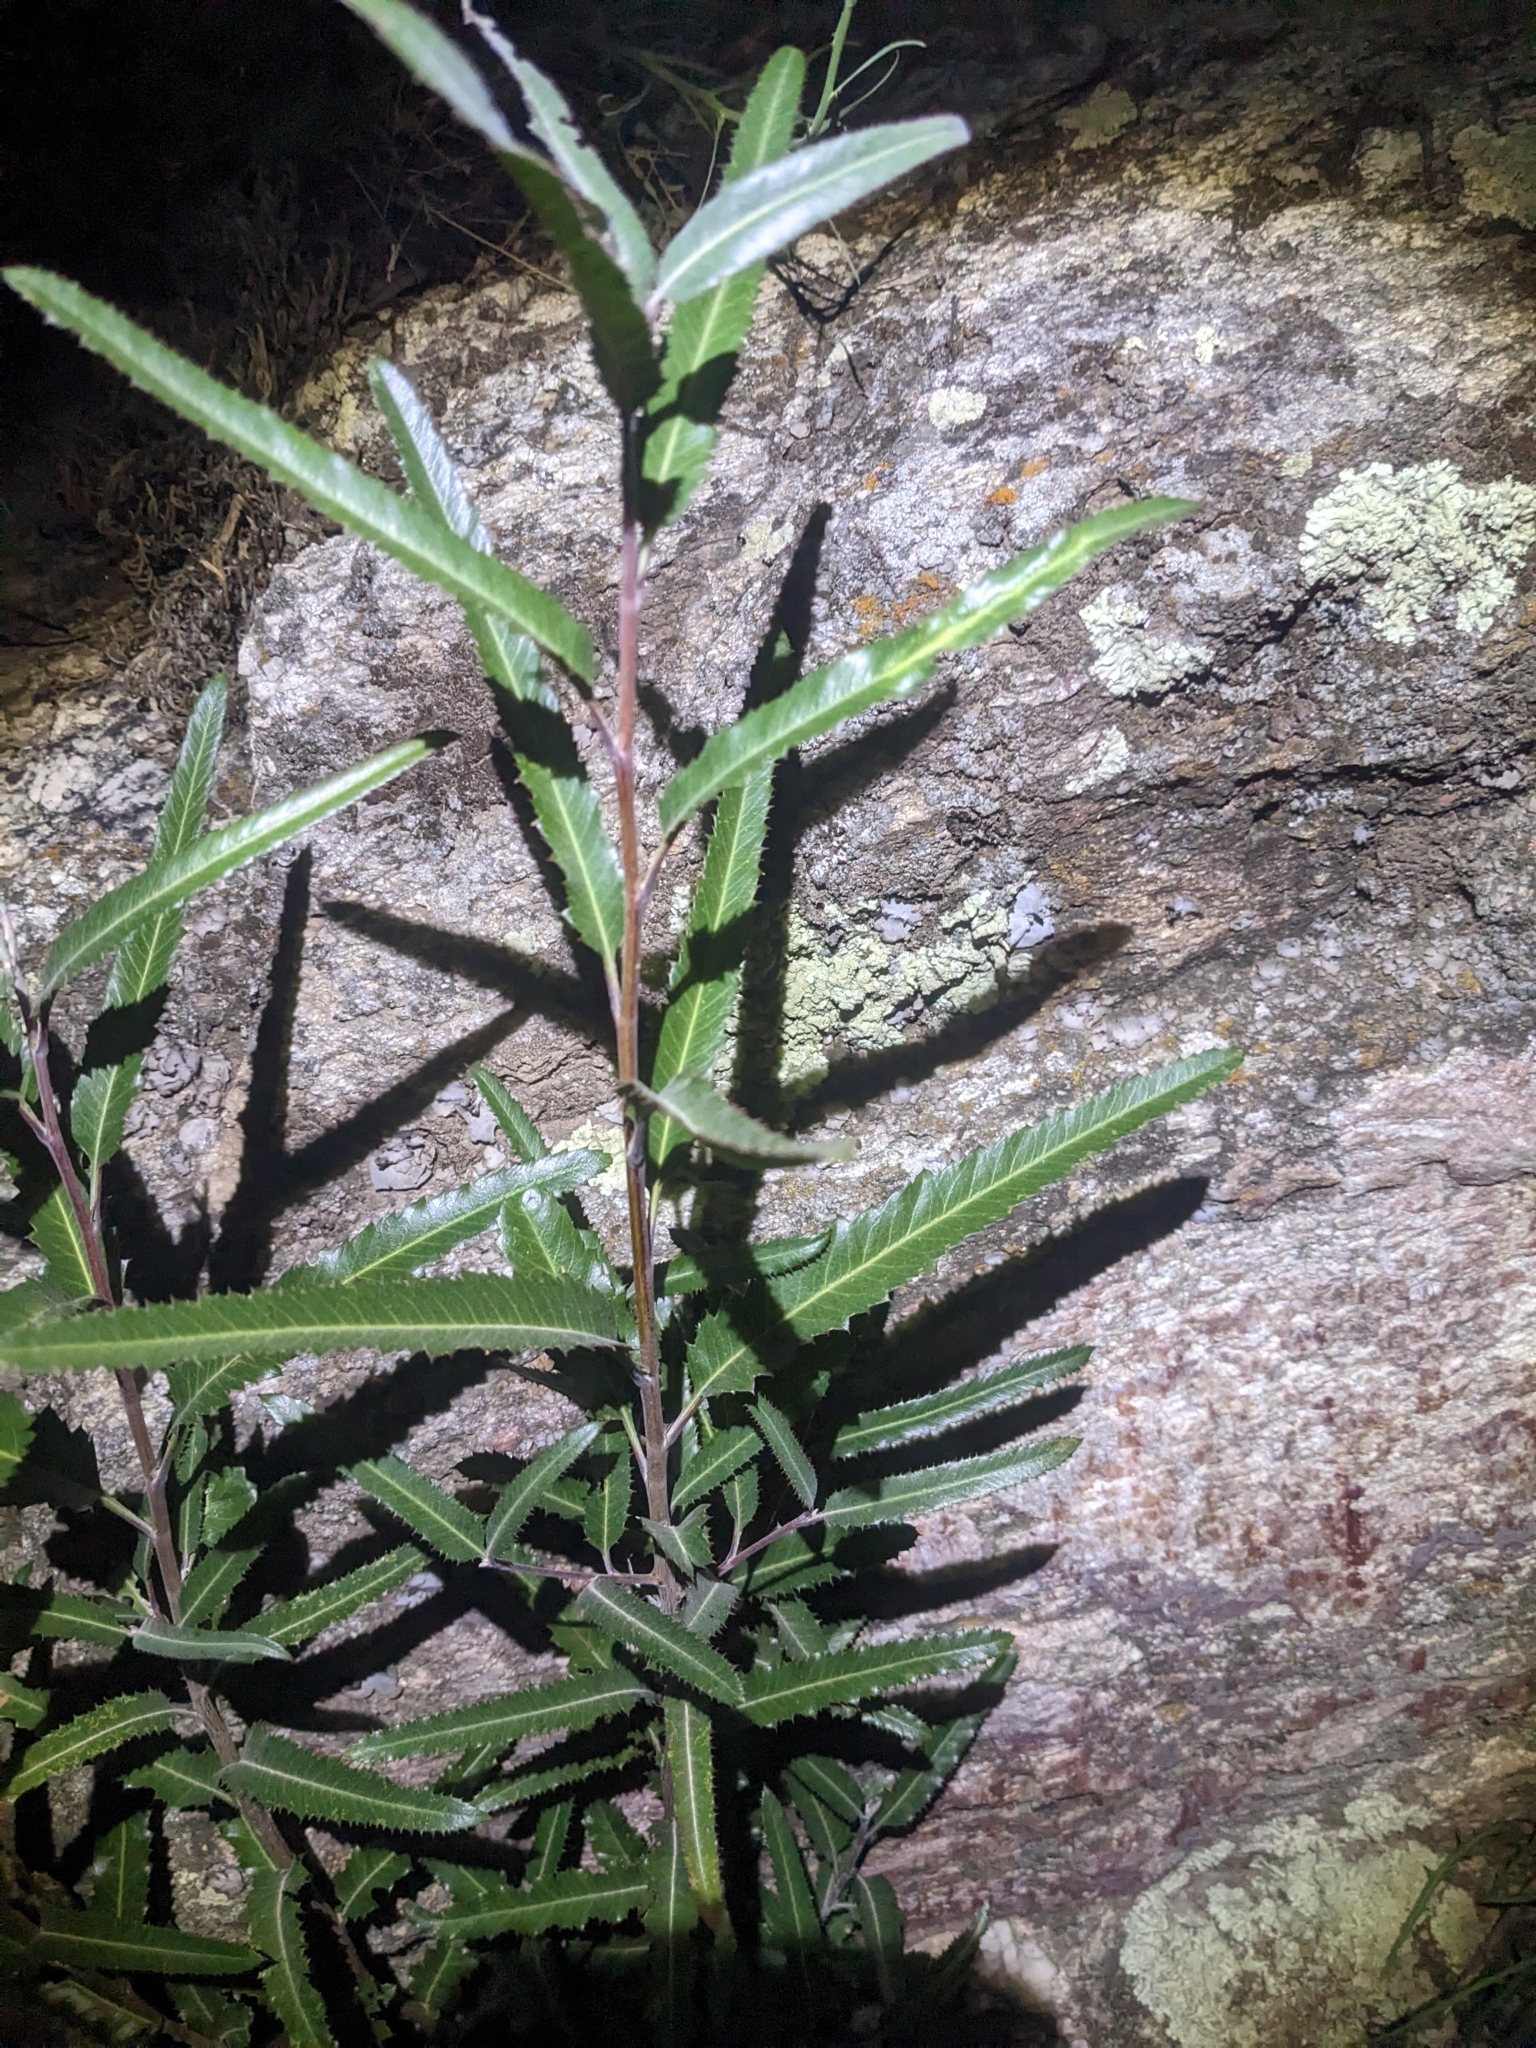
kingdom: Plantae
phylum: Tracheophyta
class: Magnoliopsida
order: Rosales
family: Rosaceae
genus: Vauquelinia
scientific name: Vauquelinia californica
